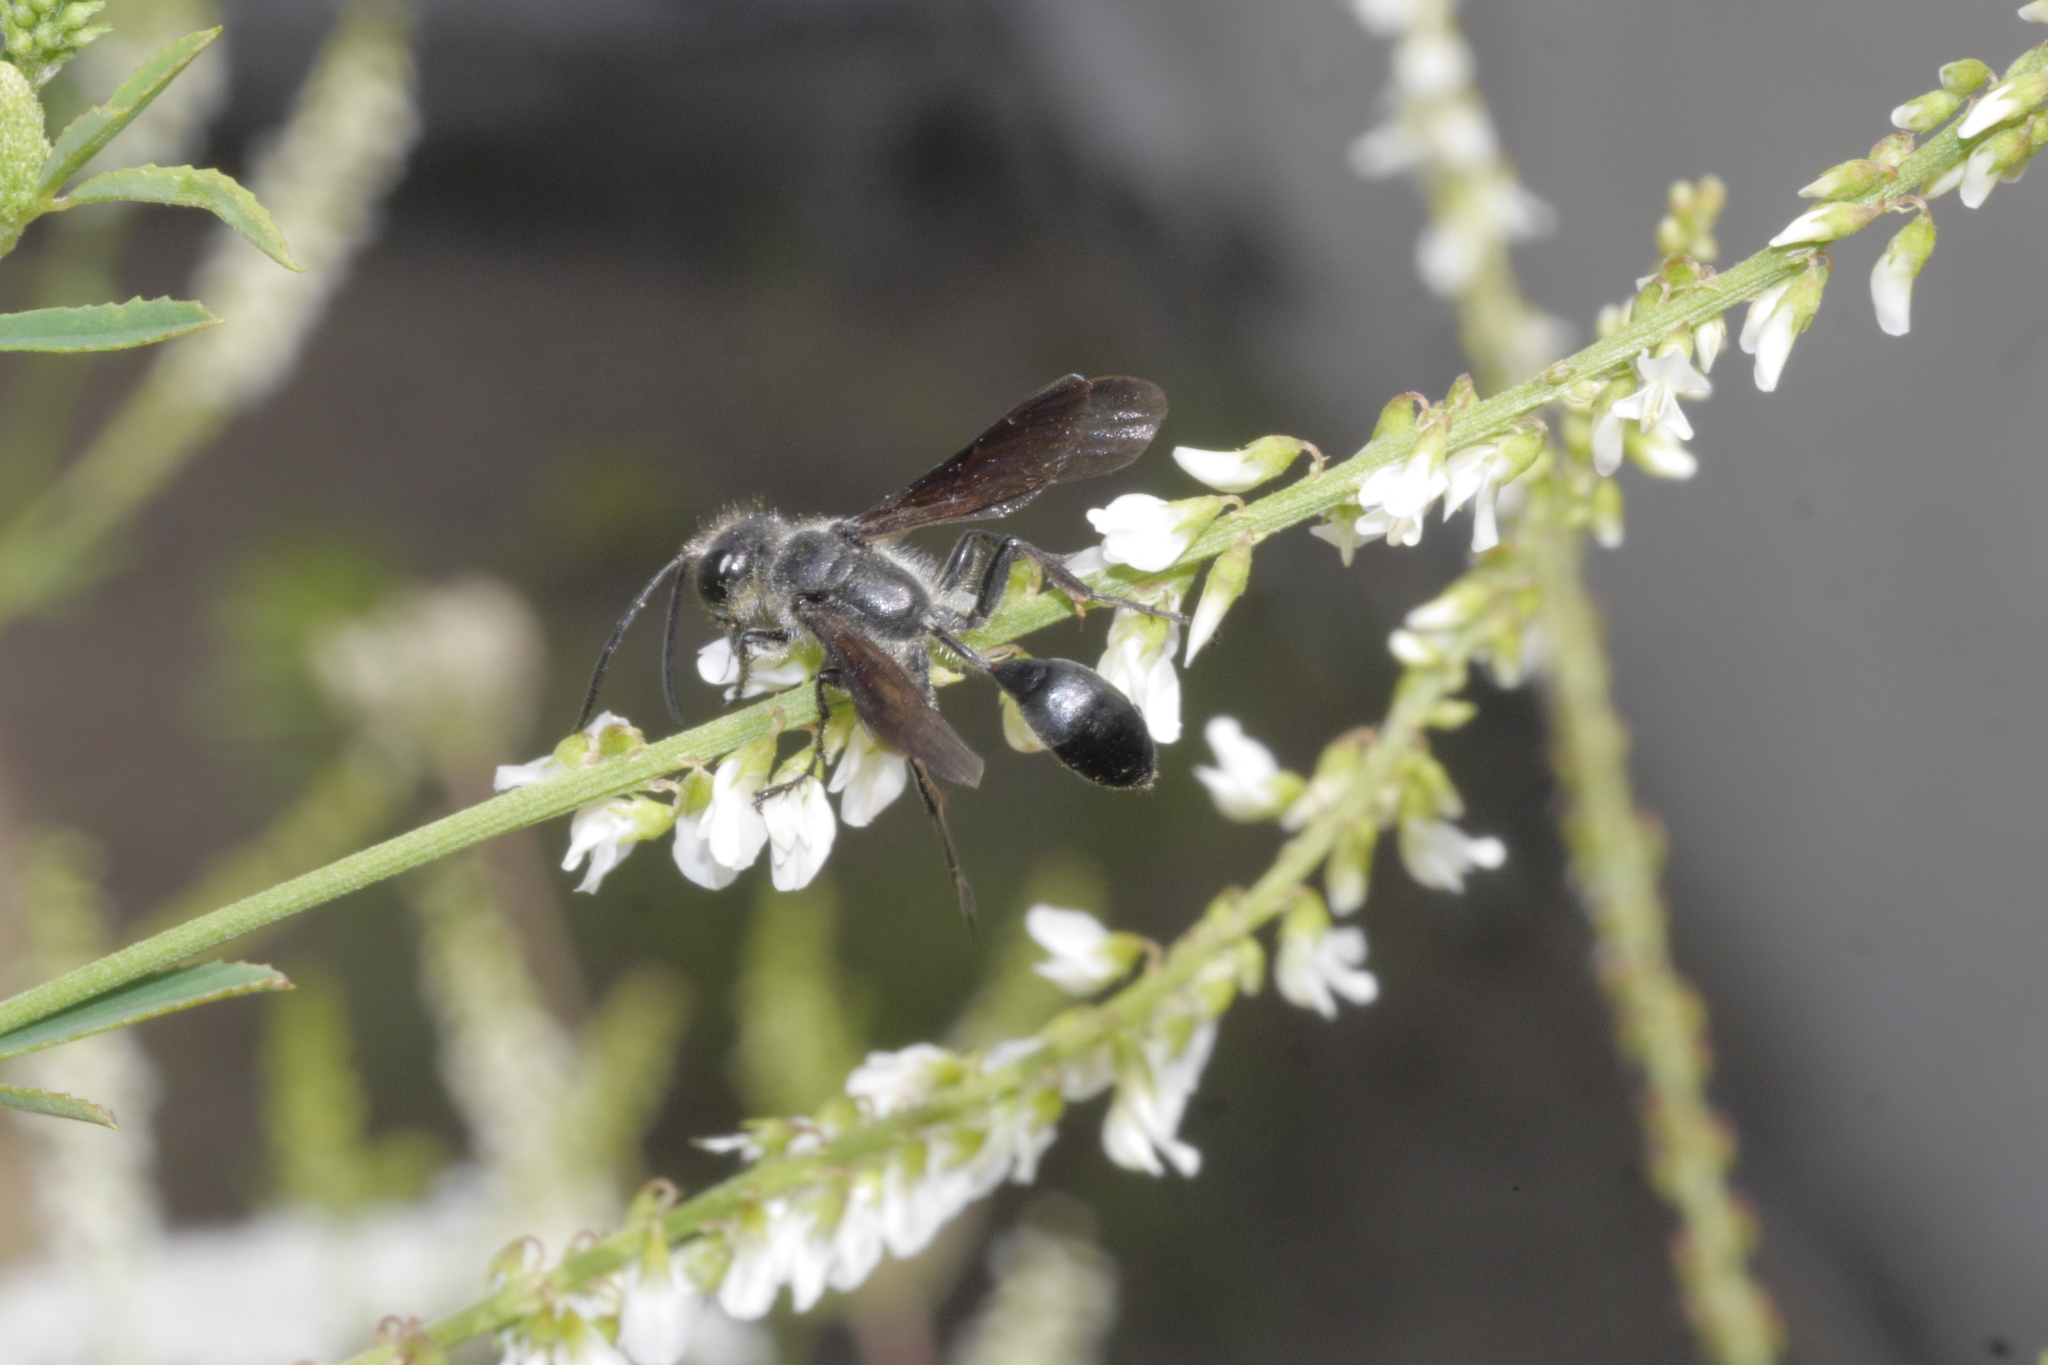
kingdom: Animalia
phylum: Arthropoda
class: Insecta
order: Hymenoptera
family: Sphecidae
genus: Isodontia
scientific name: Isodontia mexicana
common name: Mud dauber
